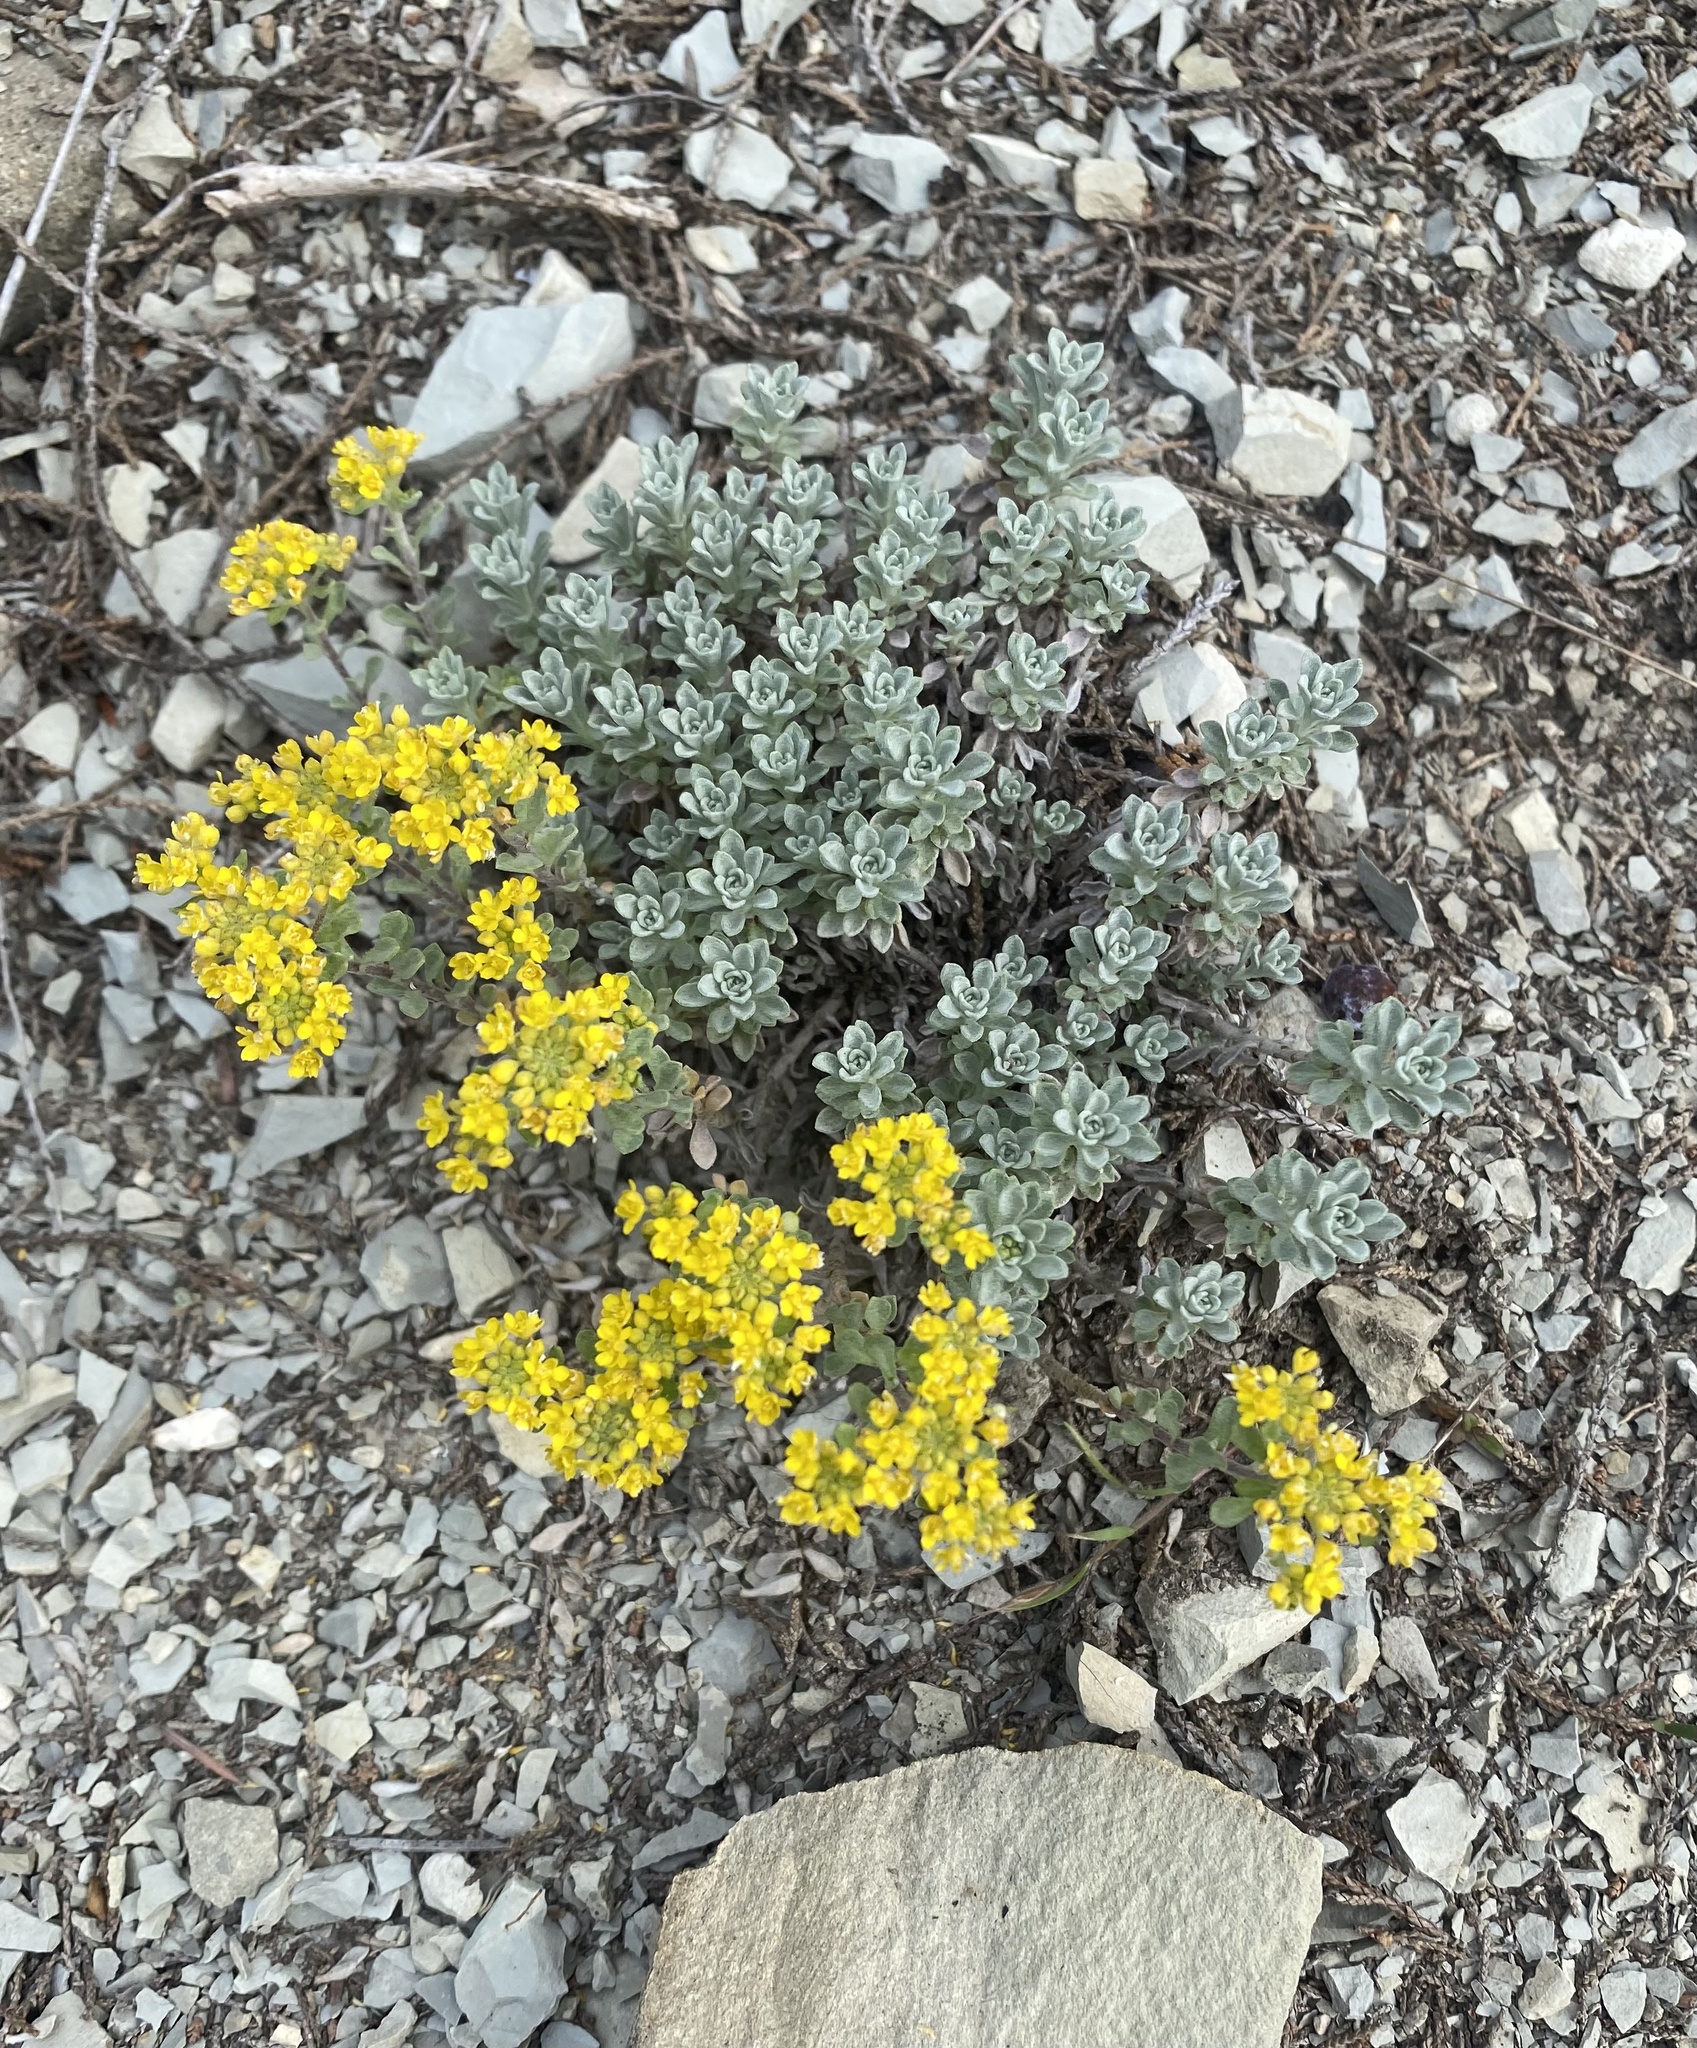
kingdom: Plantae
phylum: Tracheophyta
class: Magnoliopsida
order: Brassicales
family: Brassicaceae
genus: Odontarrhena
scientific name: Odontarrhena obtusifolia
